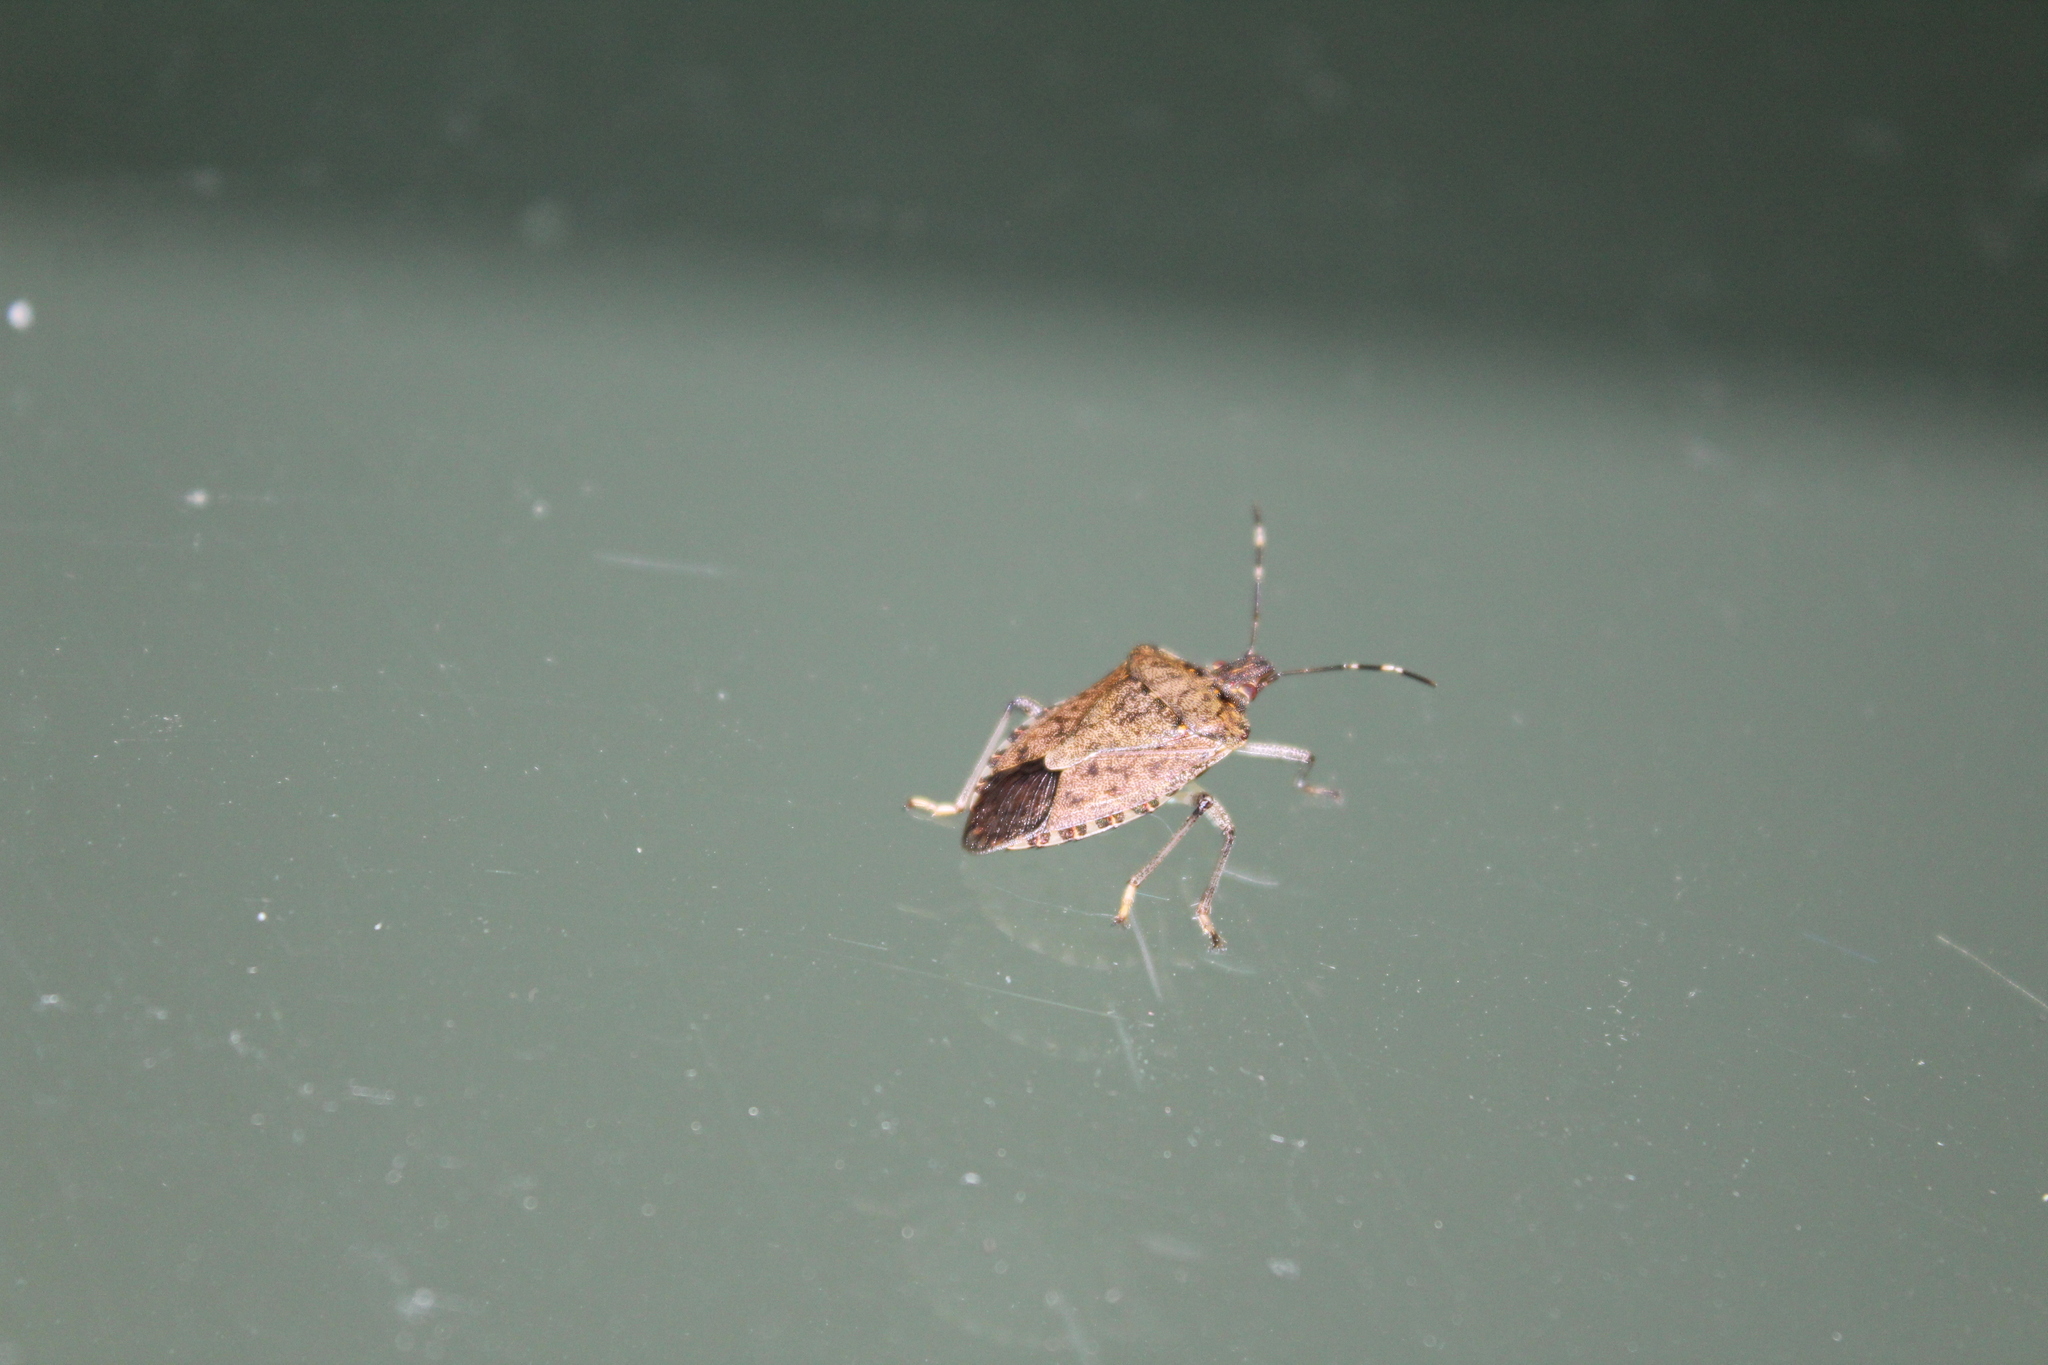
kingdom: Animalia
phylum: Arthropoda
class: Insecta
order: Hemiptera
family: Pentatomidae
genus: Halyomorpha
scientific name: Halyomorpha halys
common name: Brown marmorated stink bug
